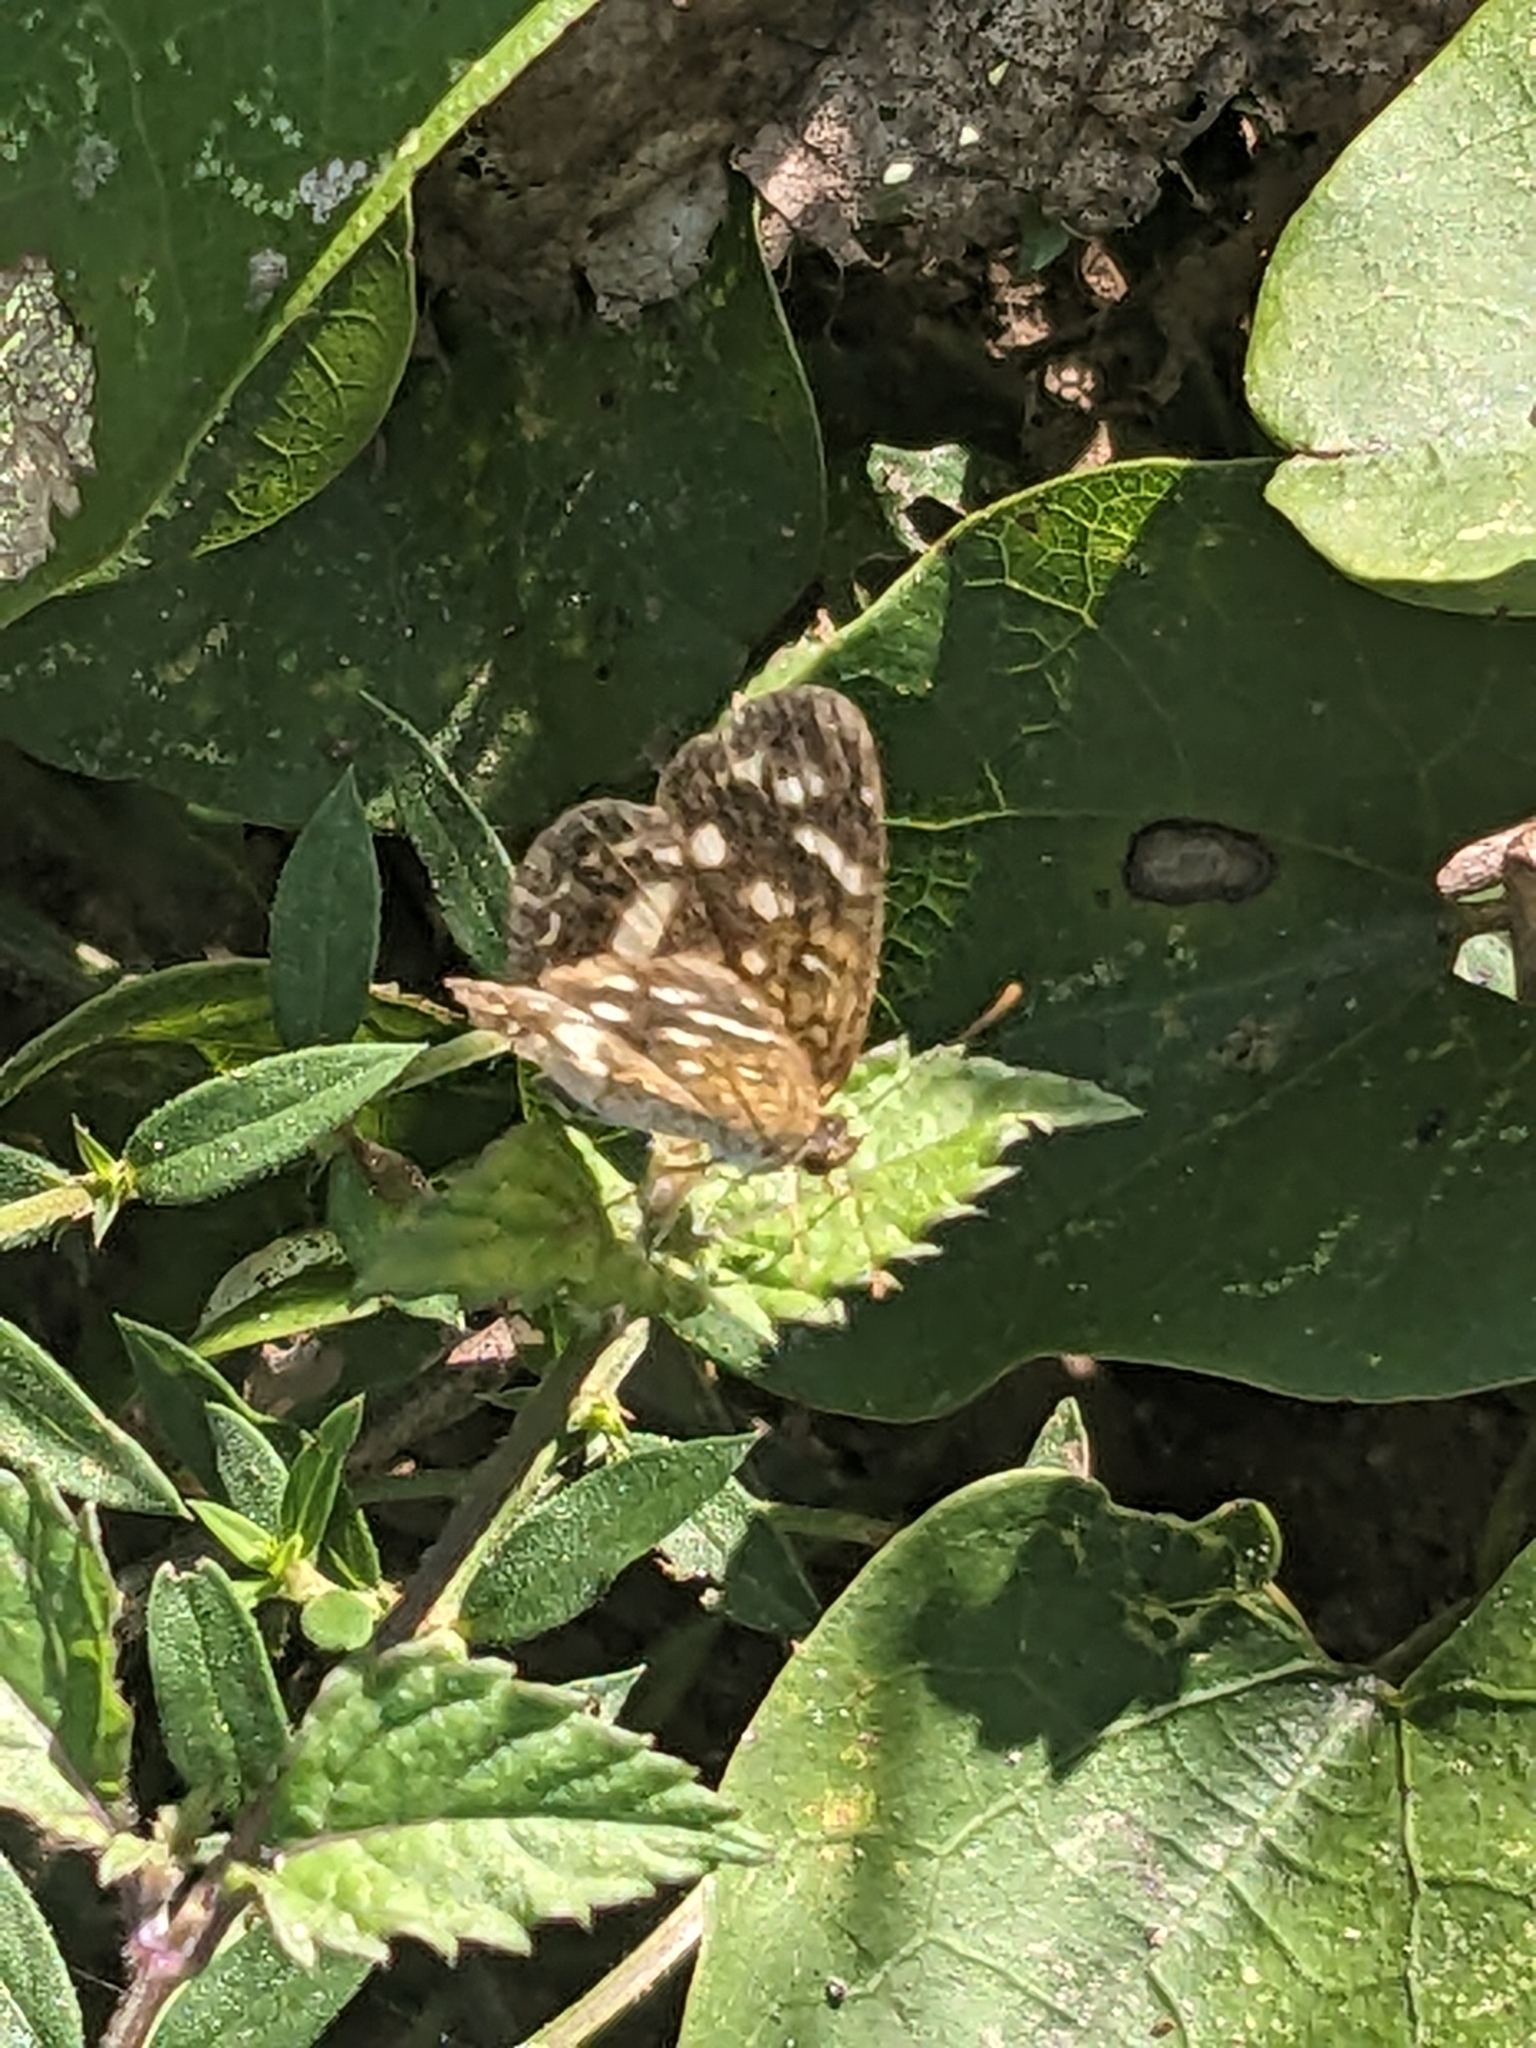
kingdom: Animalia
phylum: Arthropoda
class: Insecta
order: Lepidoptera
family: Nymphalidae
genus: Anthanassa
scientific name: Anthanassa tulcis
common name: Pale-banded crescent
